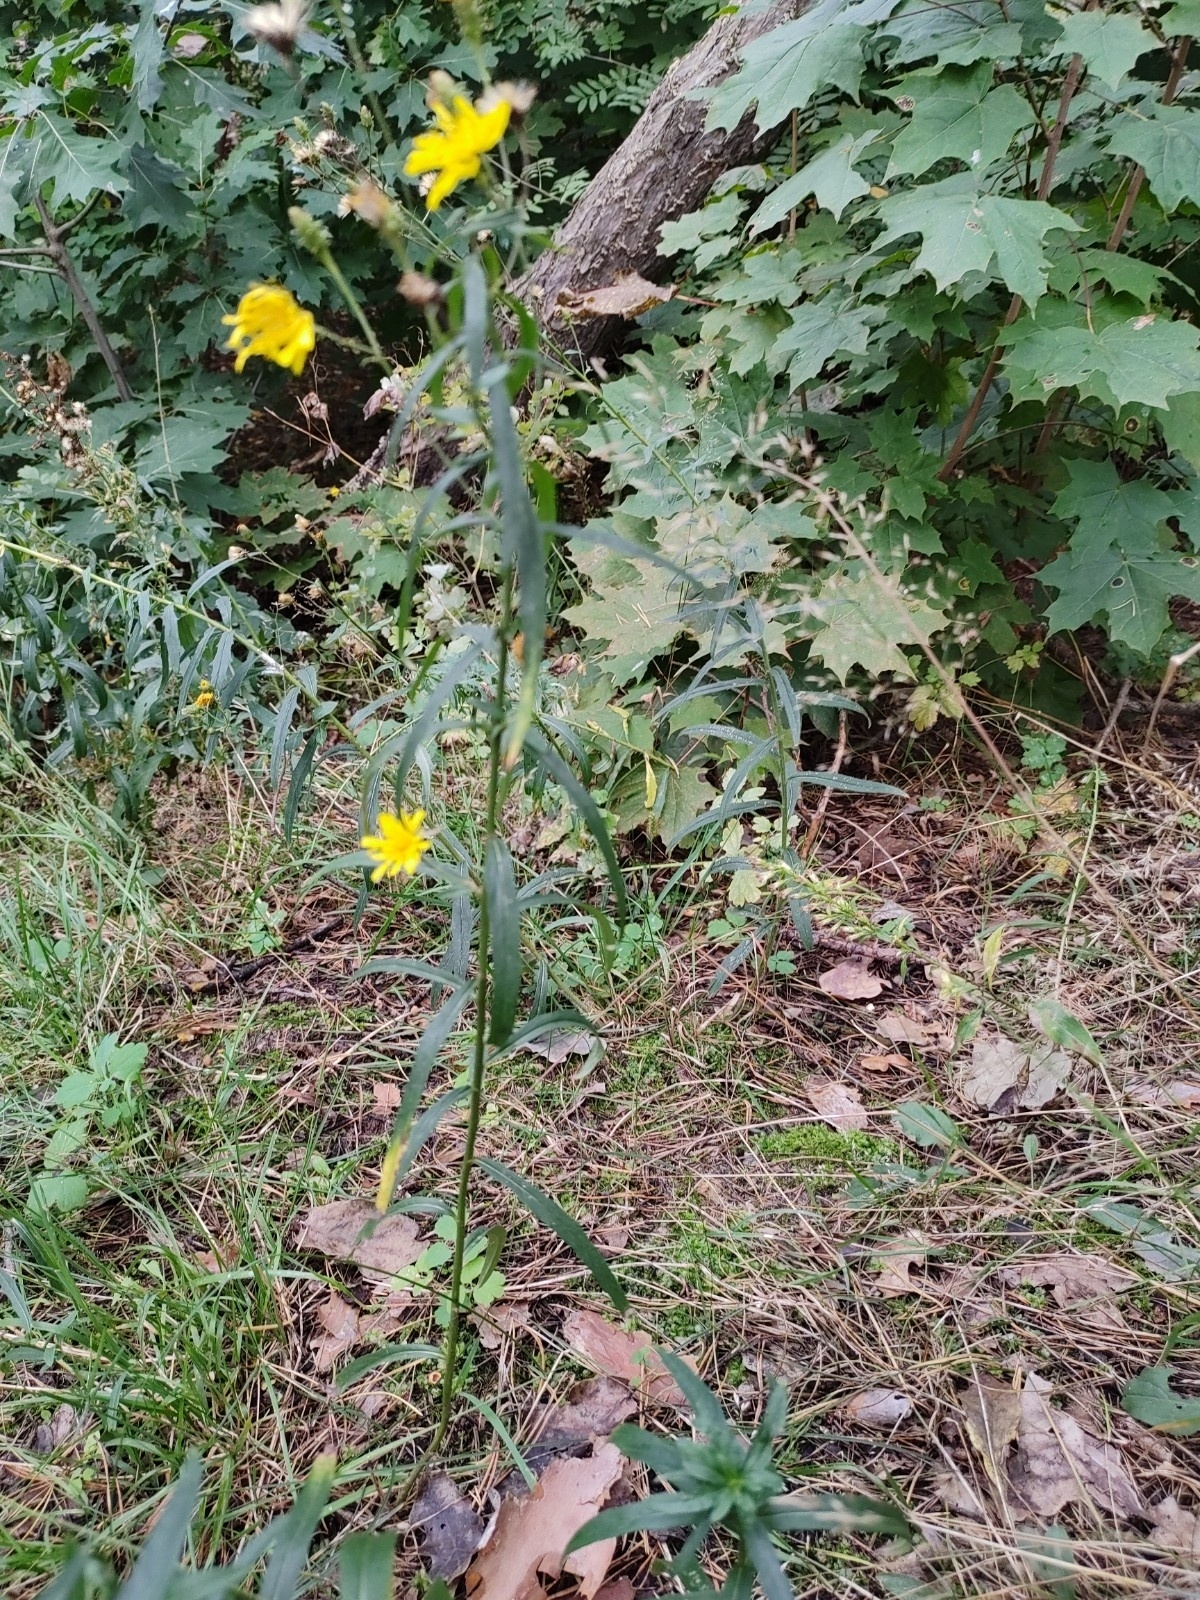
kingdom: Plantae
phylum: Tracheophyta
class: Magnoliopsida
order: Asterales
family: Asteraceae
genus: Hieracium
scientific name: Hieracium umbellatum
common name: Northern hawkweed
